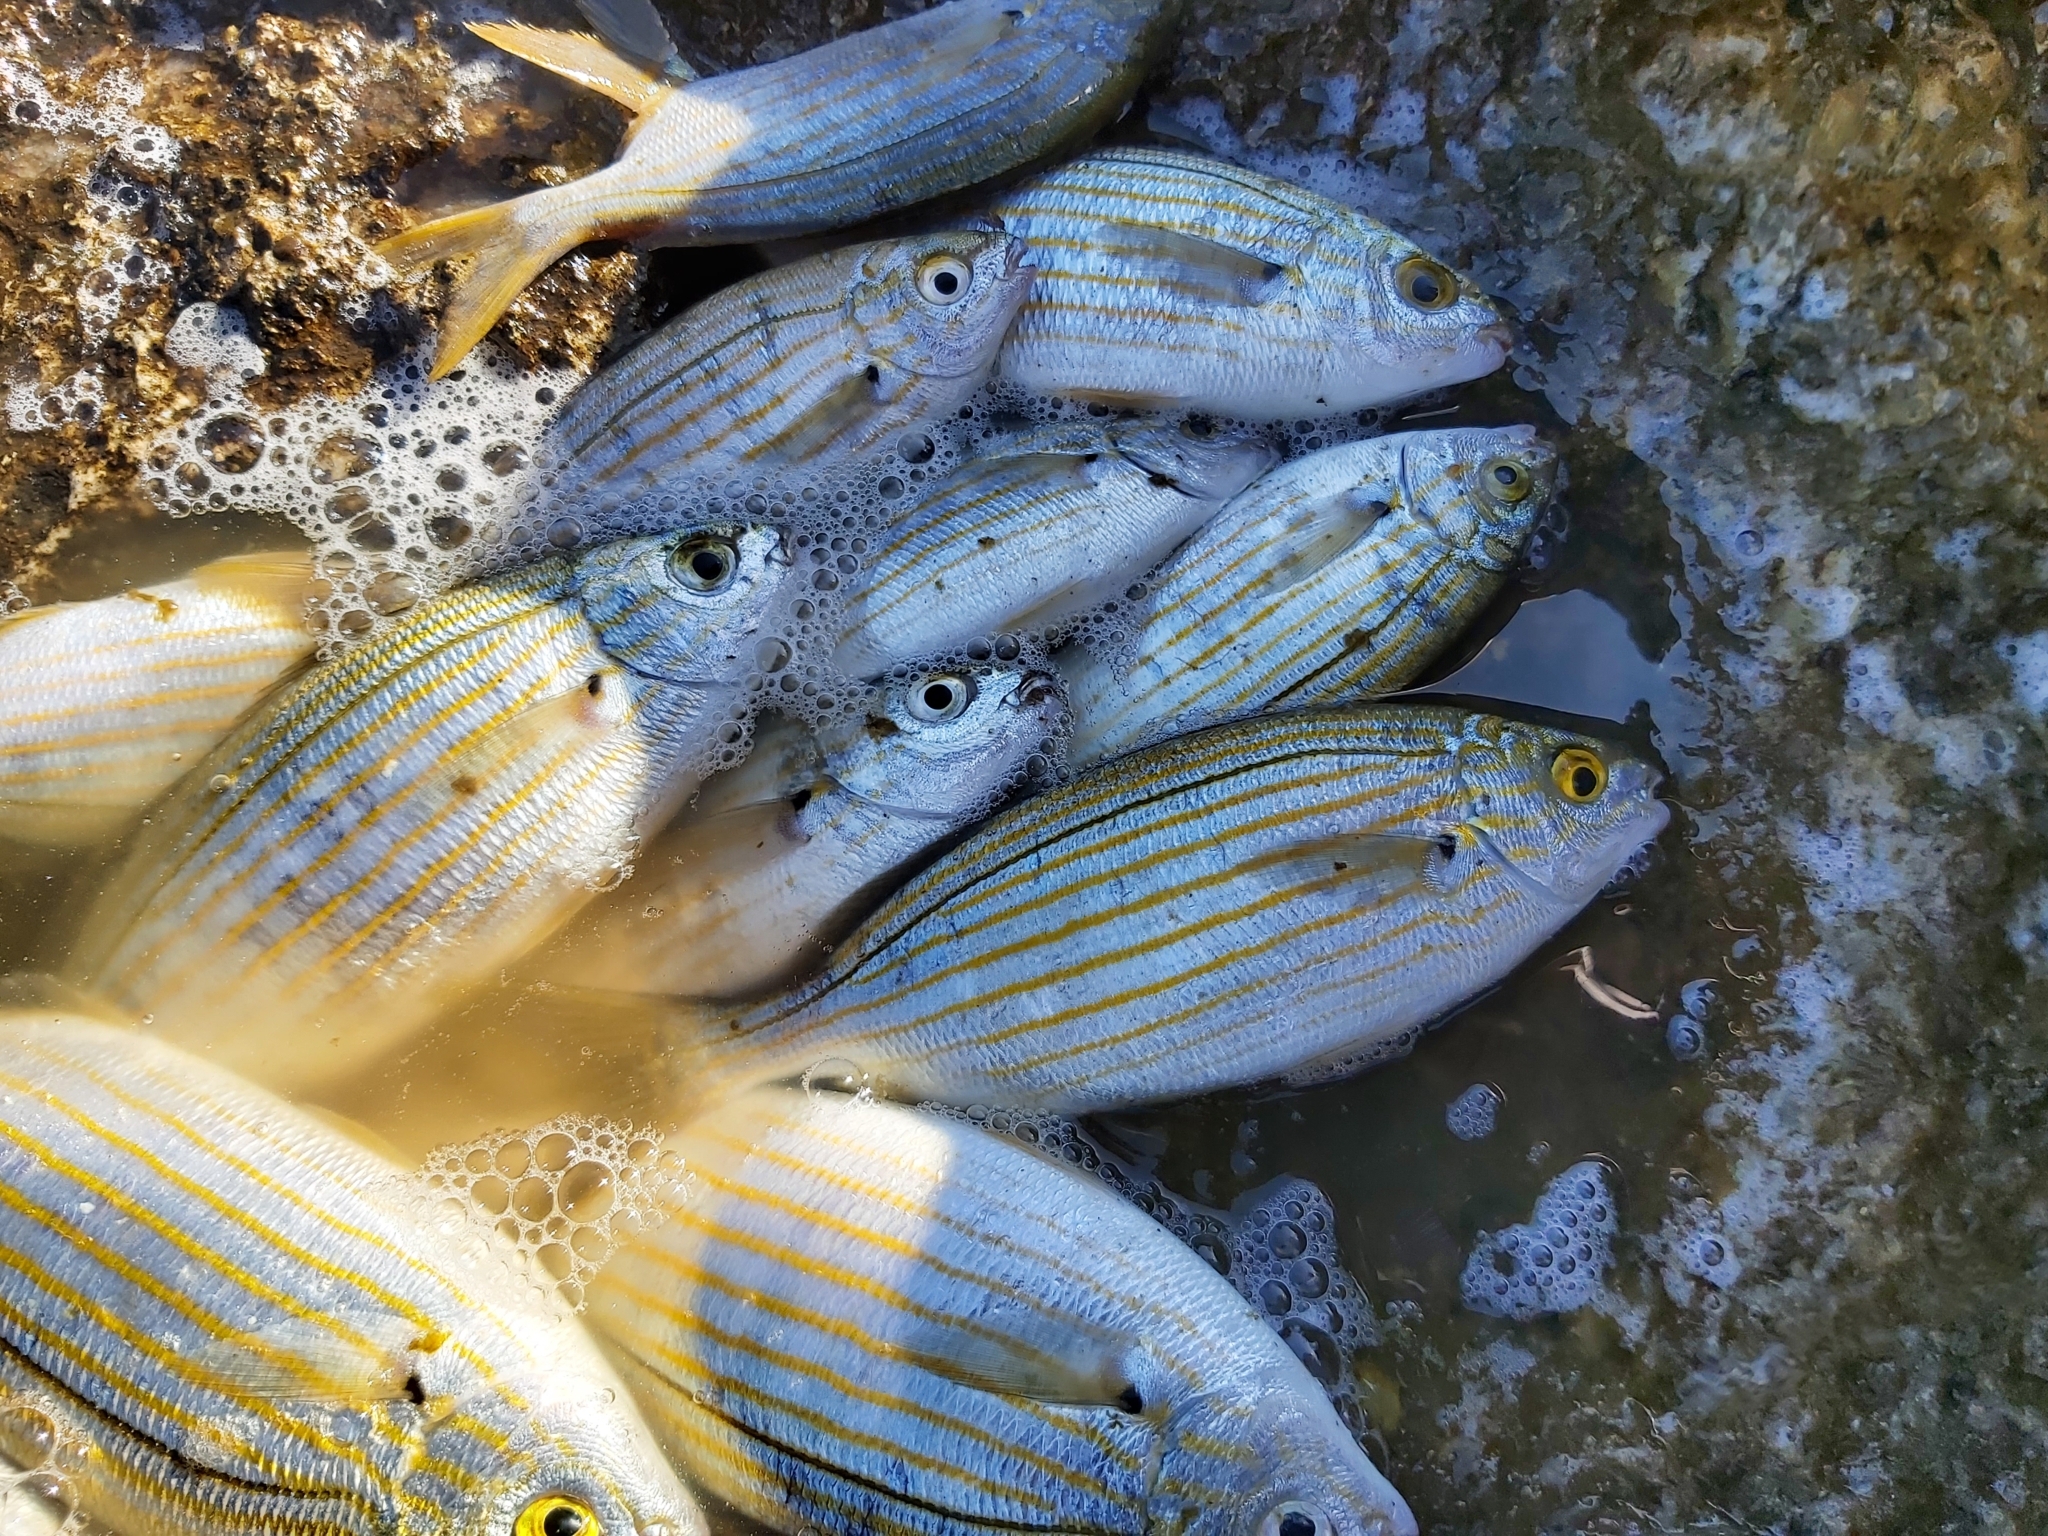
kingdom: Animalia
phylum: Chordata
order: Perciformes
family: Sparidae
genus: Sarpa
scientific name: Sarpa salpa
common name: Salema
